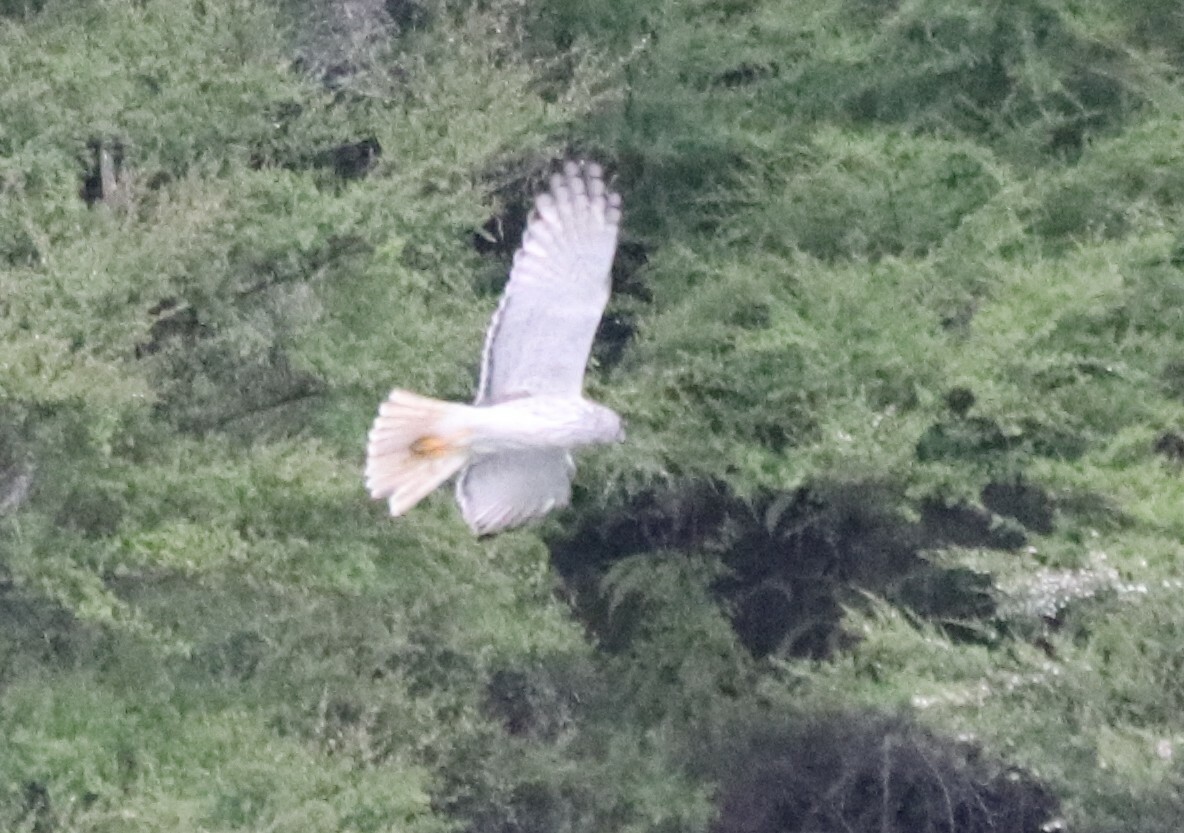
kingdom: Animalia
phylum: Chordata
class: Aves
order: Accipitriformes
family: Accipitridae
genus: Circus
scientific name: Circus approximans
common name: Swamp harrier
